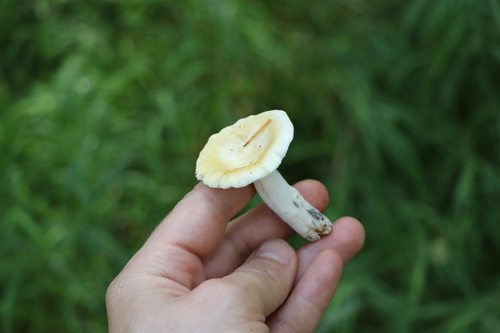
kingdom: Fungi
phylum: Basidiomycota
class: Agaricomycetes
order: Russulales
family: Russulaceae
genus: Russula
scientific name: Russula claroflava
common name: The yellow swamp brittlegill
